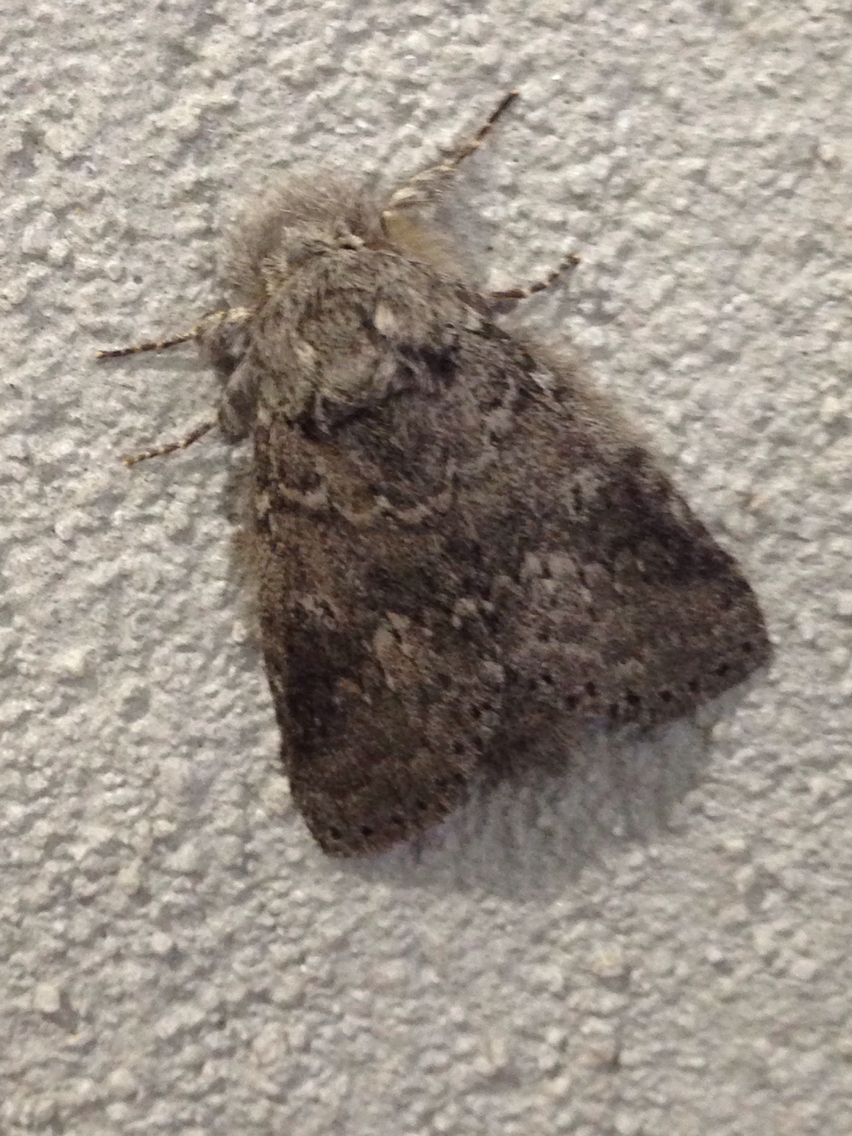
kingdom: Animalia
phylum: Arthropoda
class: Insecta
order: Lepidoptera
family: Notodontidae
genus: Lochmaeus
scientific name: Lochmaeus manteo
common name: Variable oakleaf caterpillar moth
